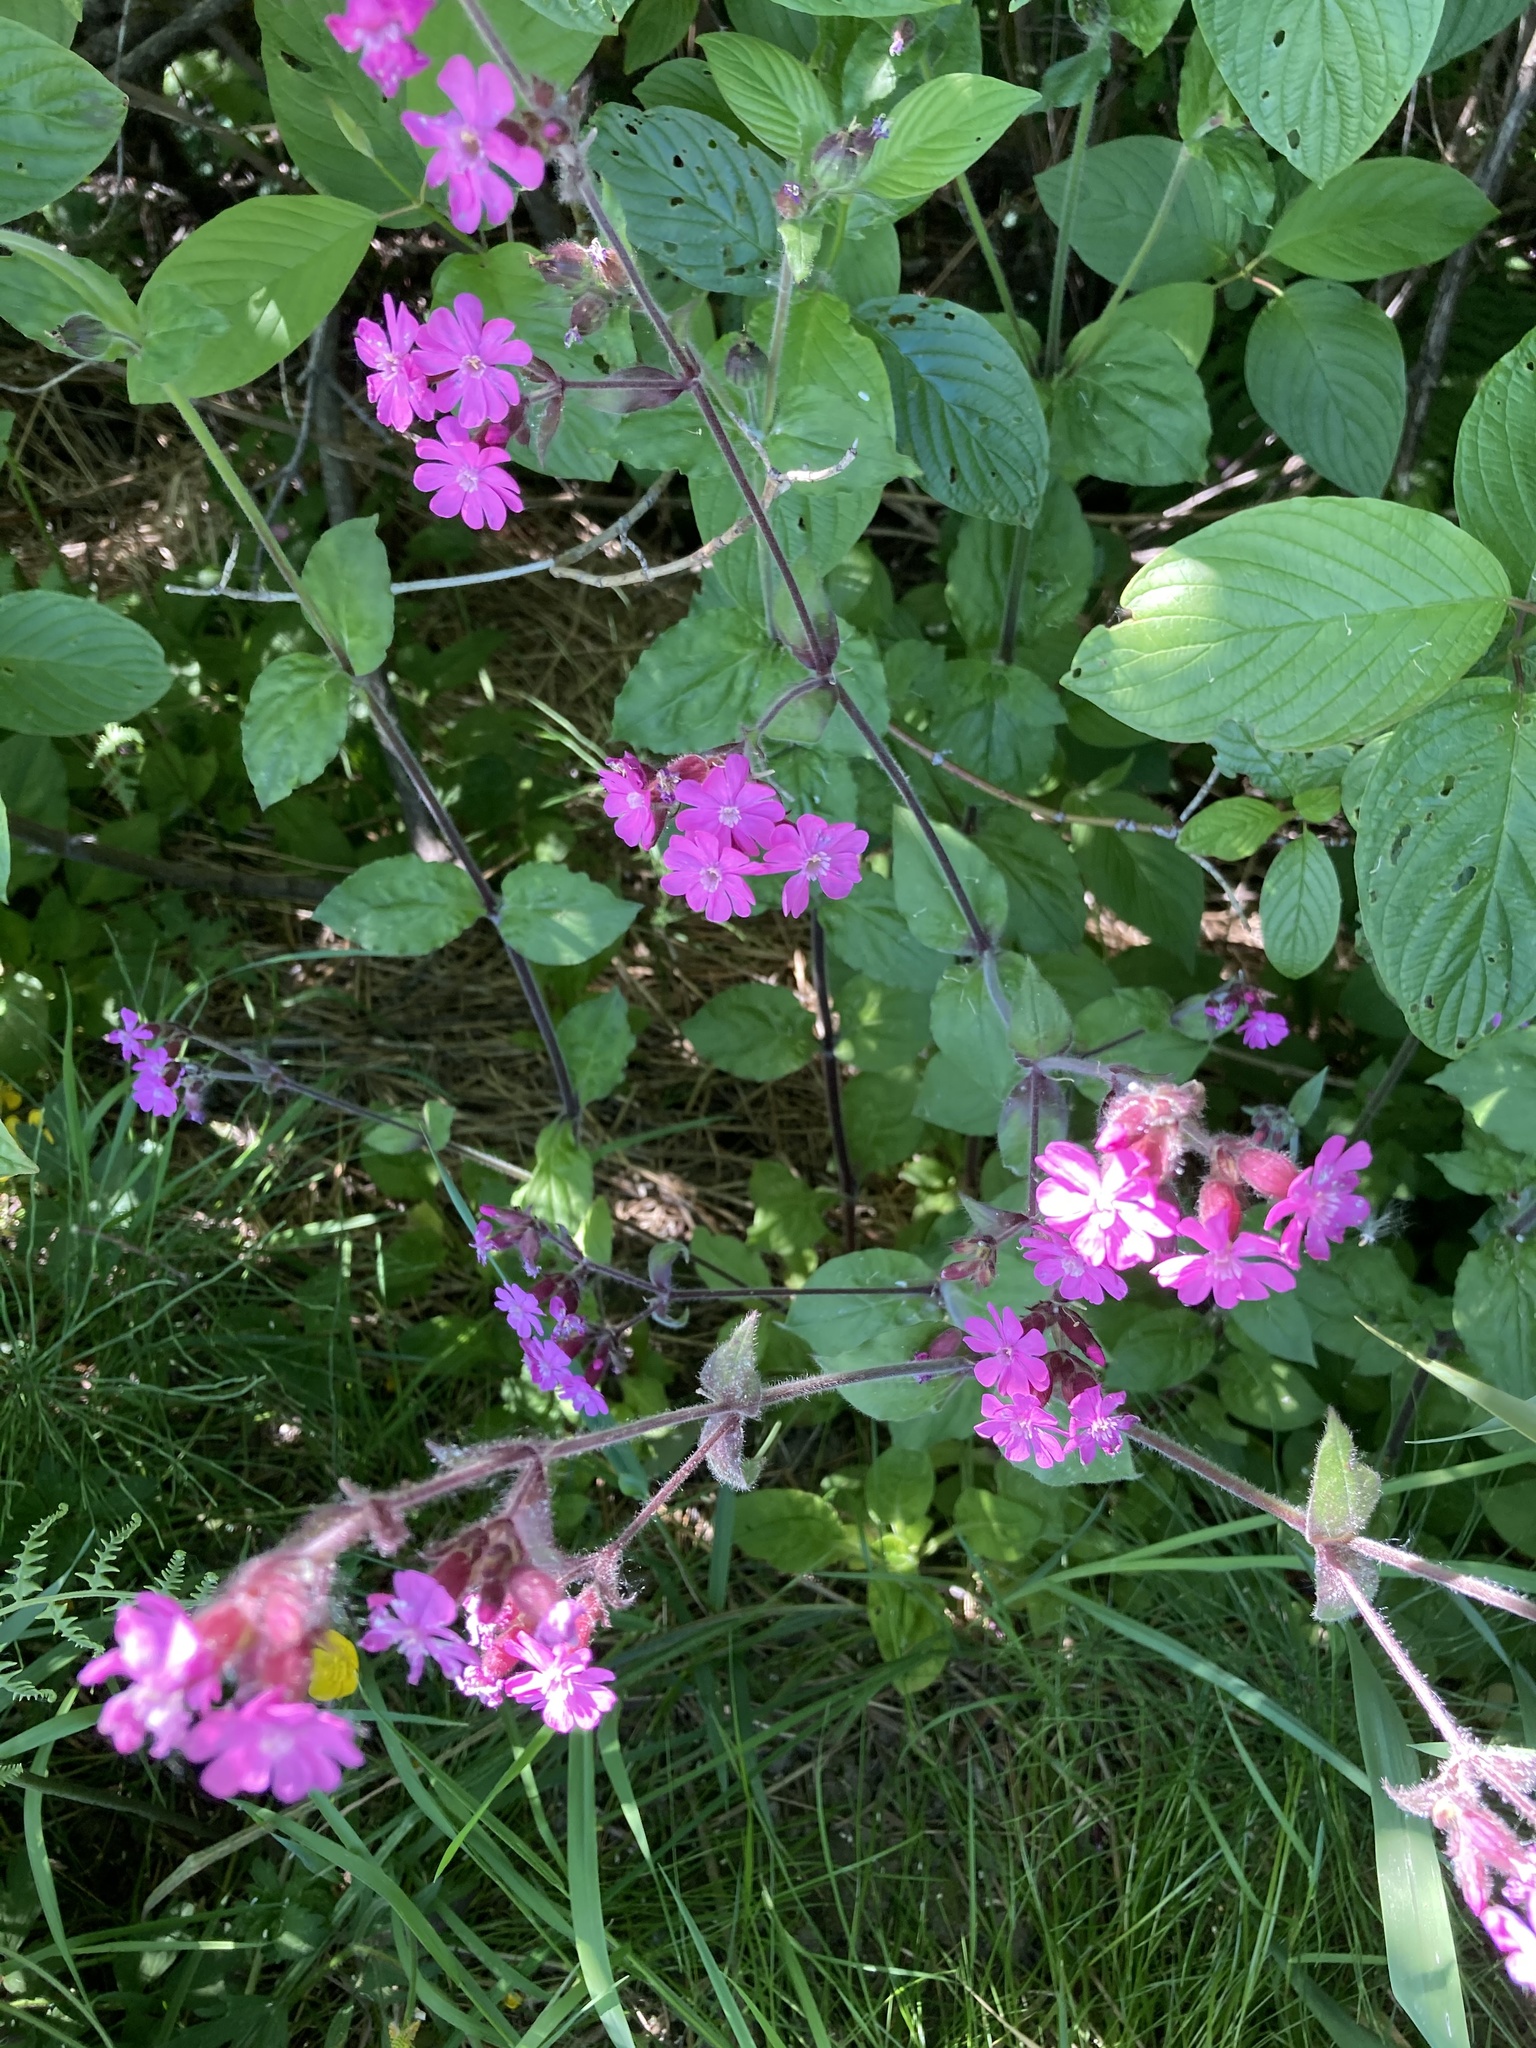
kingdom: Plantae
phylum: Tracheophyta
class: Magnoliopsida
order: Caryophyllales
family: Caryophyllaceae
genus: Silene
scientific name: Silene dioica
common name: Red campion
